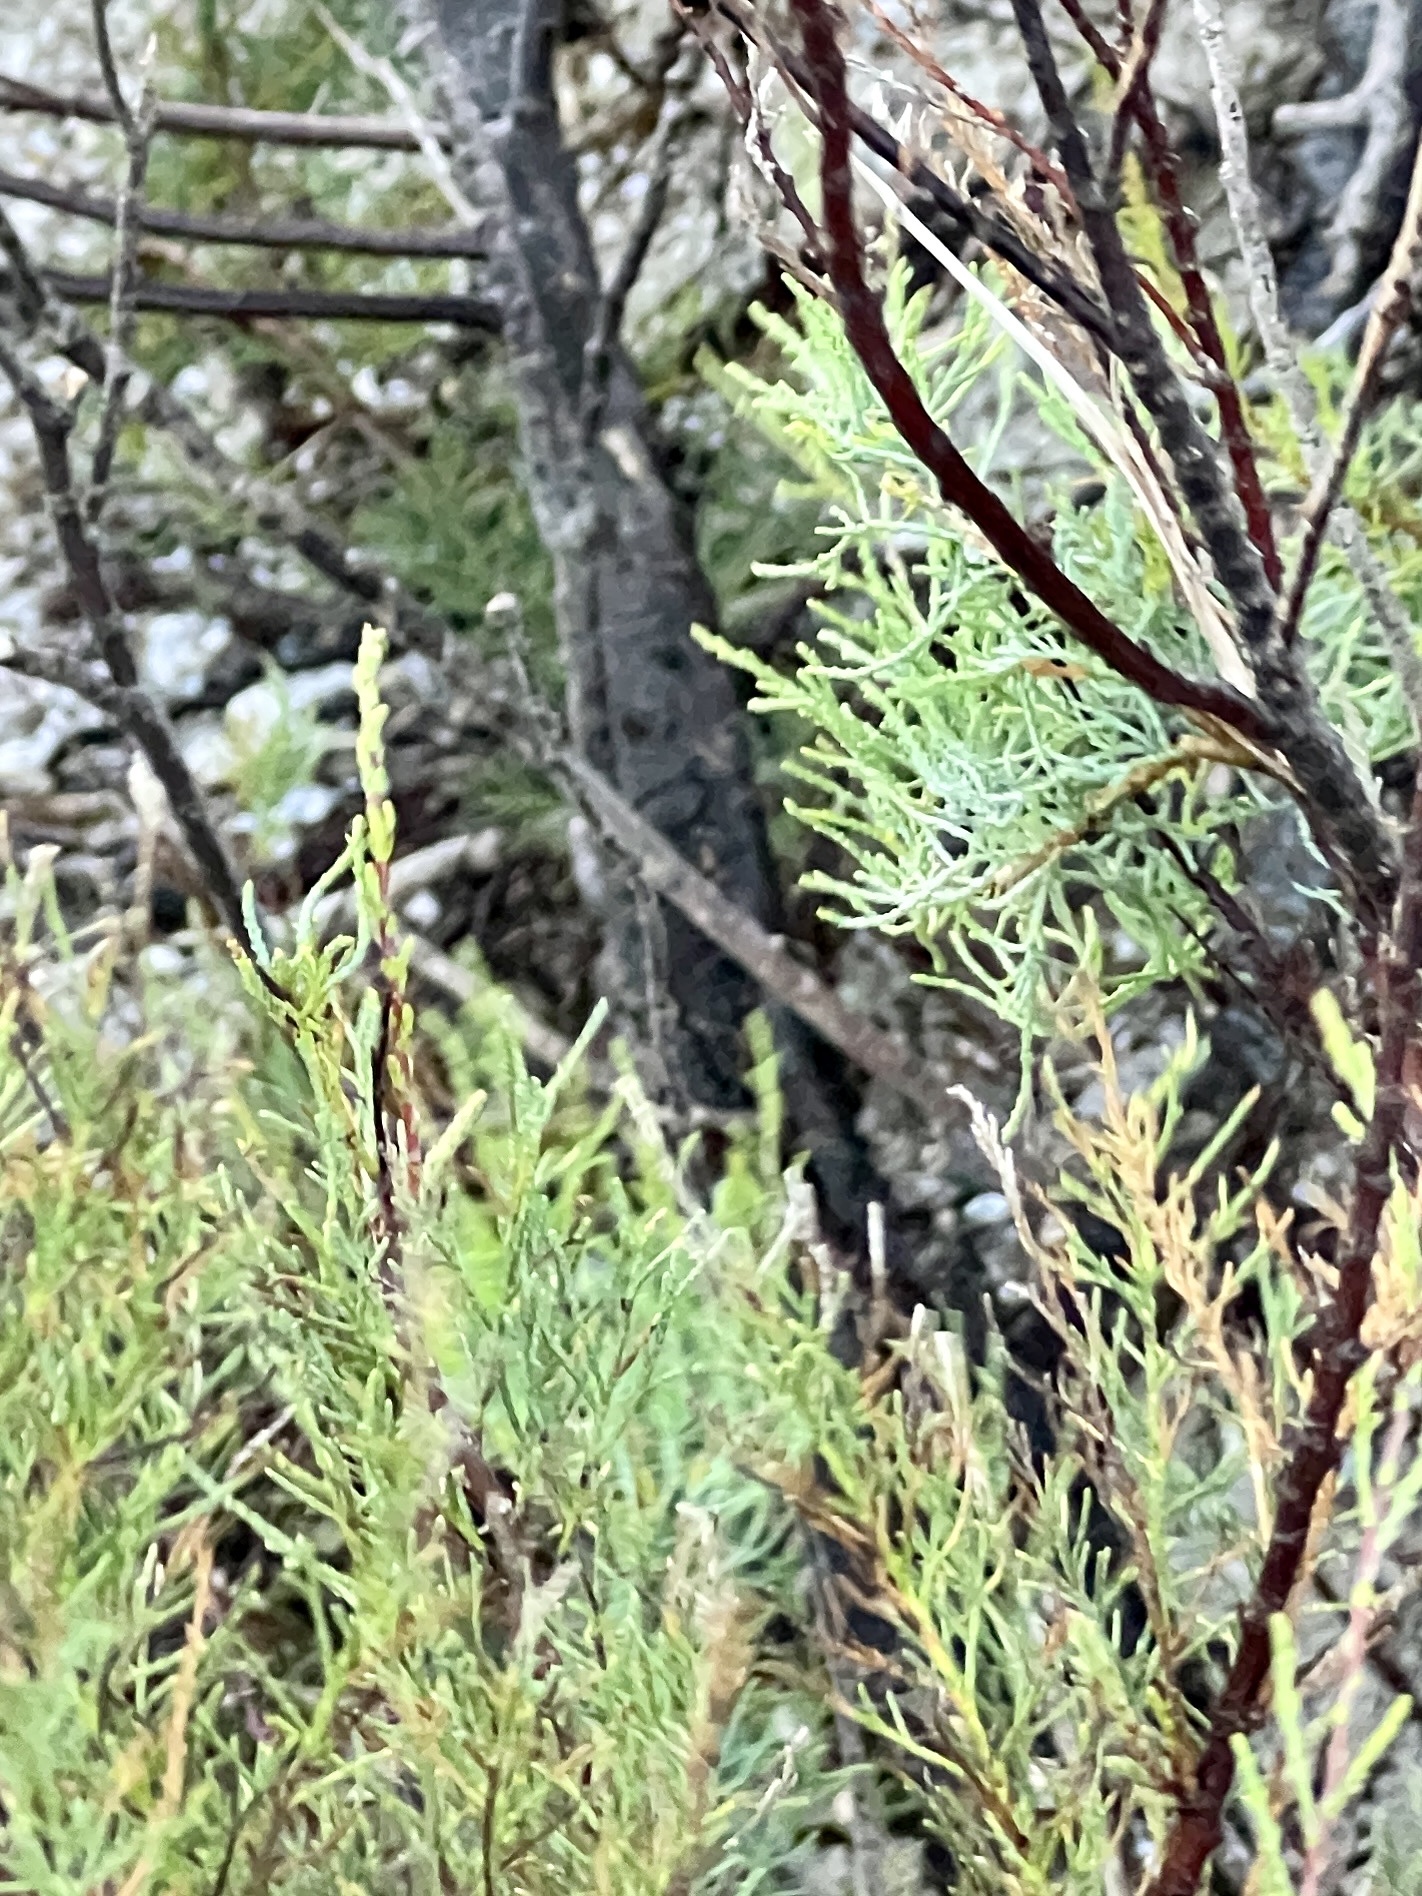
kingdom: Plantae
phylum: Tracheophyta
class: Magnoliopsida
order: Caryophyllales
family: Tamaricaceae
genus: Tamarix
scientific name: Tamarix
